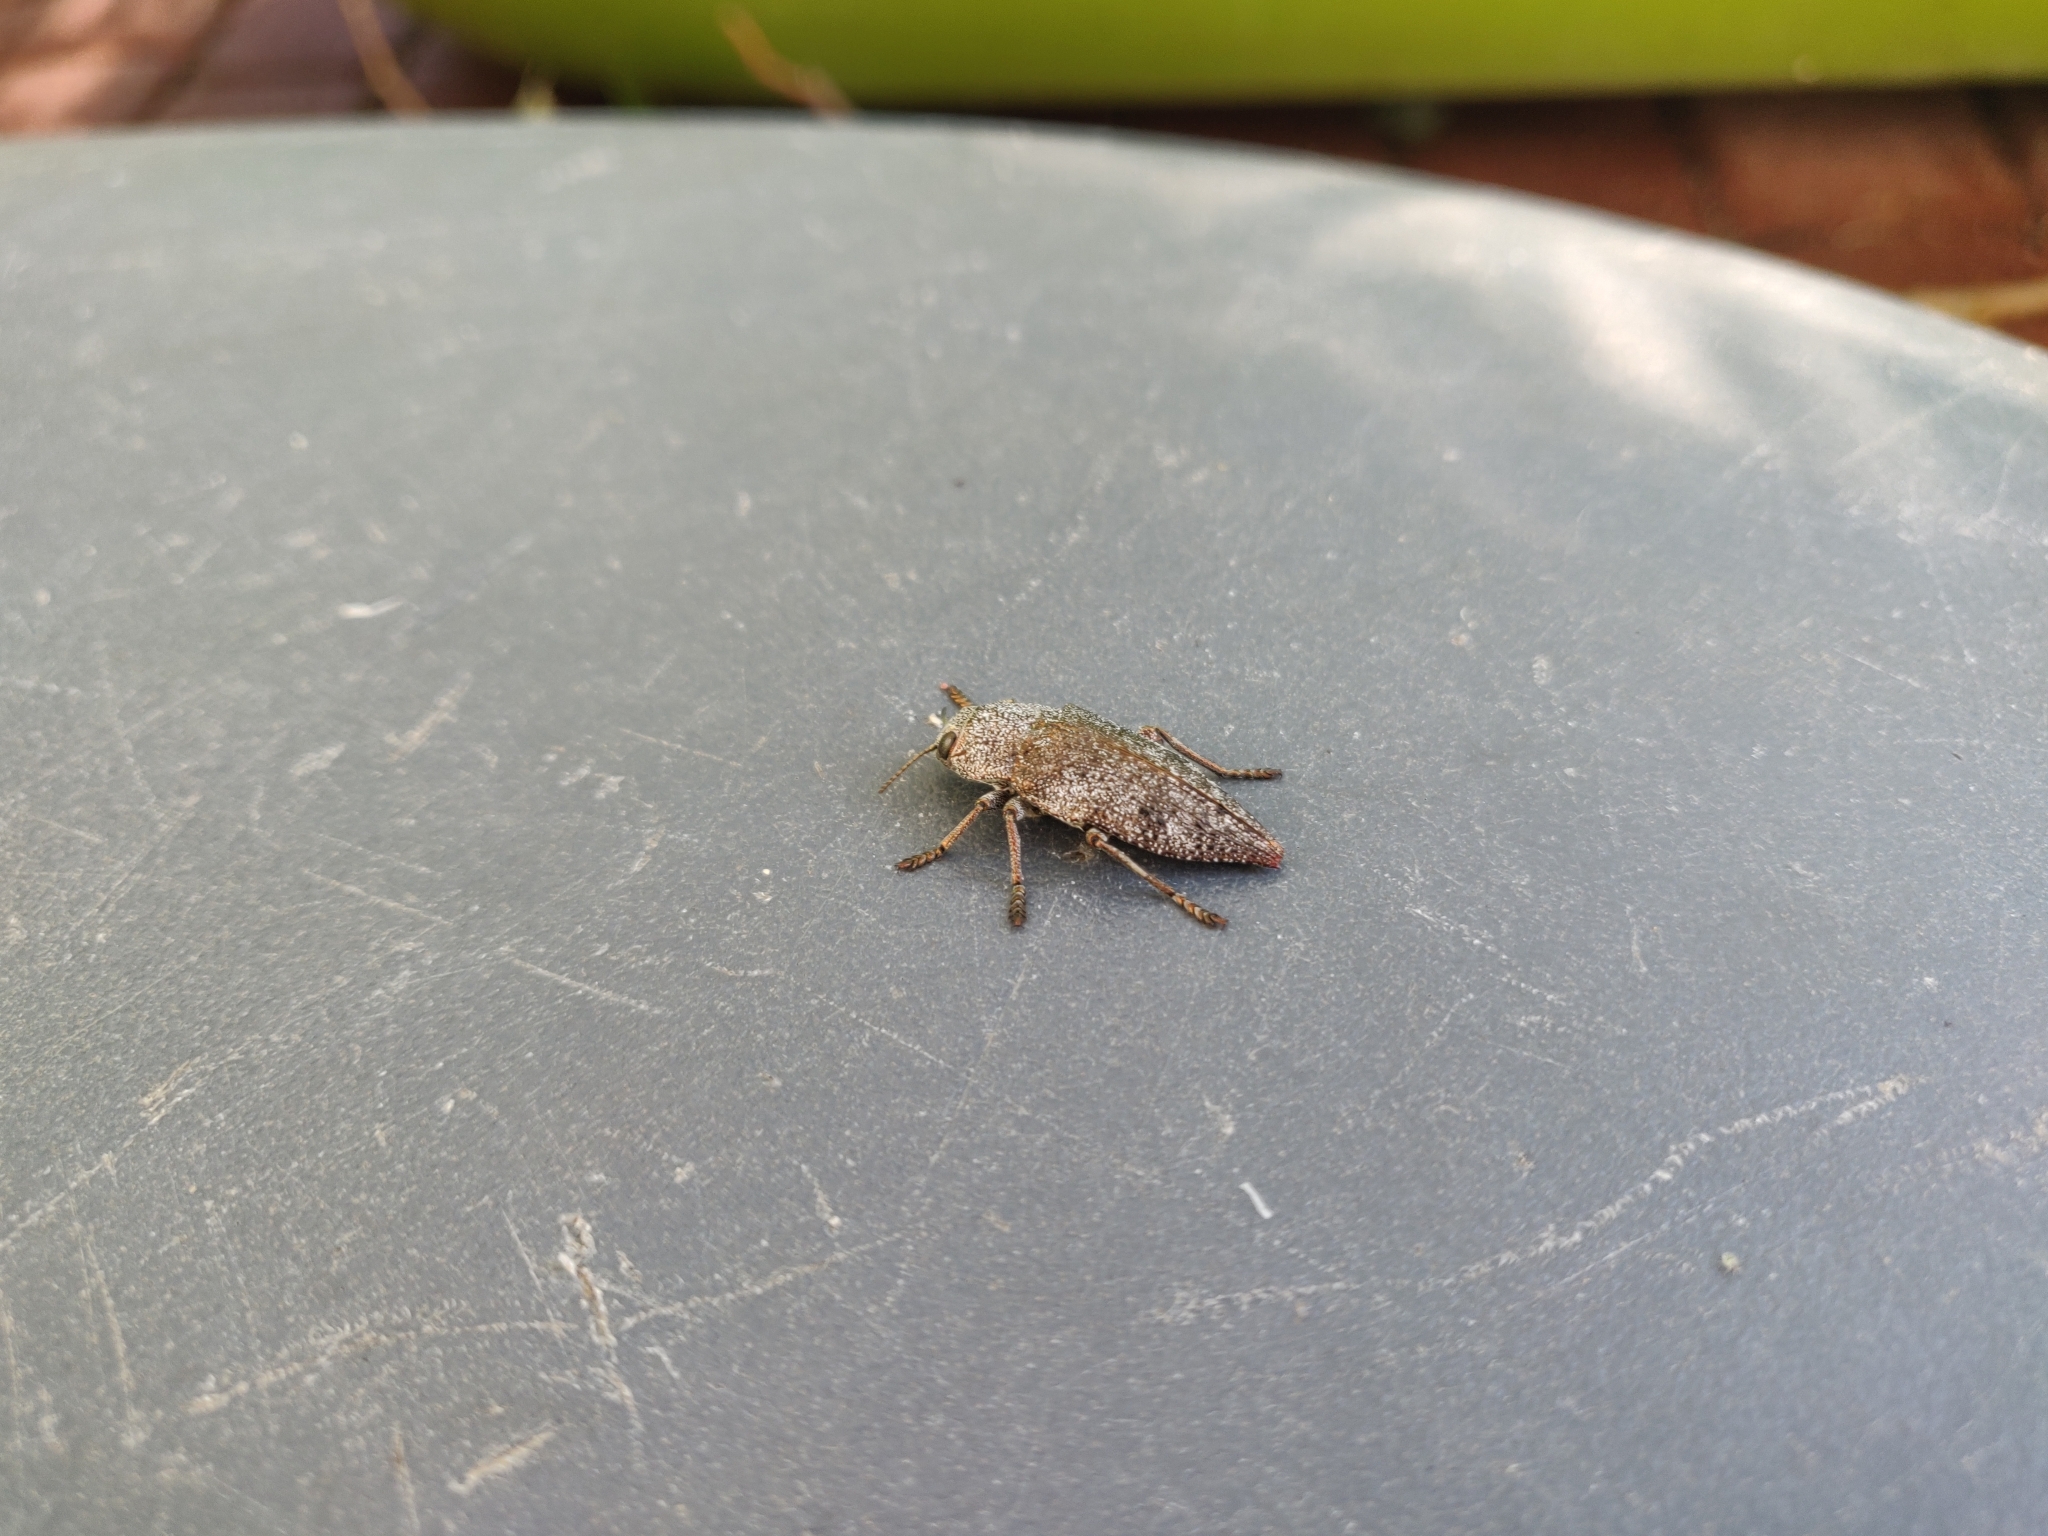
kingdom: Animalia
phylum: Arthropoda
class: Insecta
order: Coleoptera
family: Buprestidae
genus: Dicerca
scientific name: Dicerca aenea
